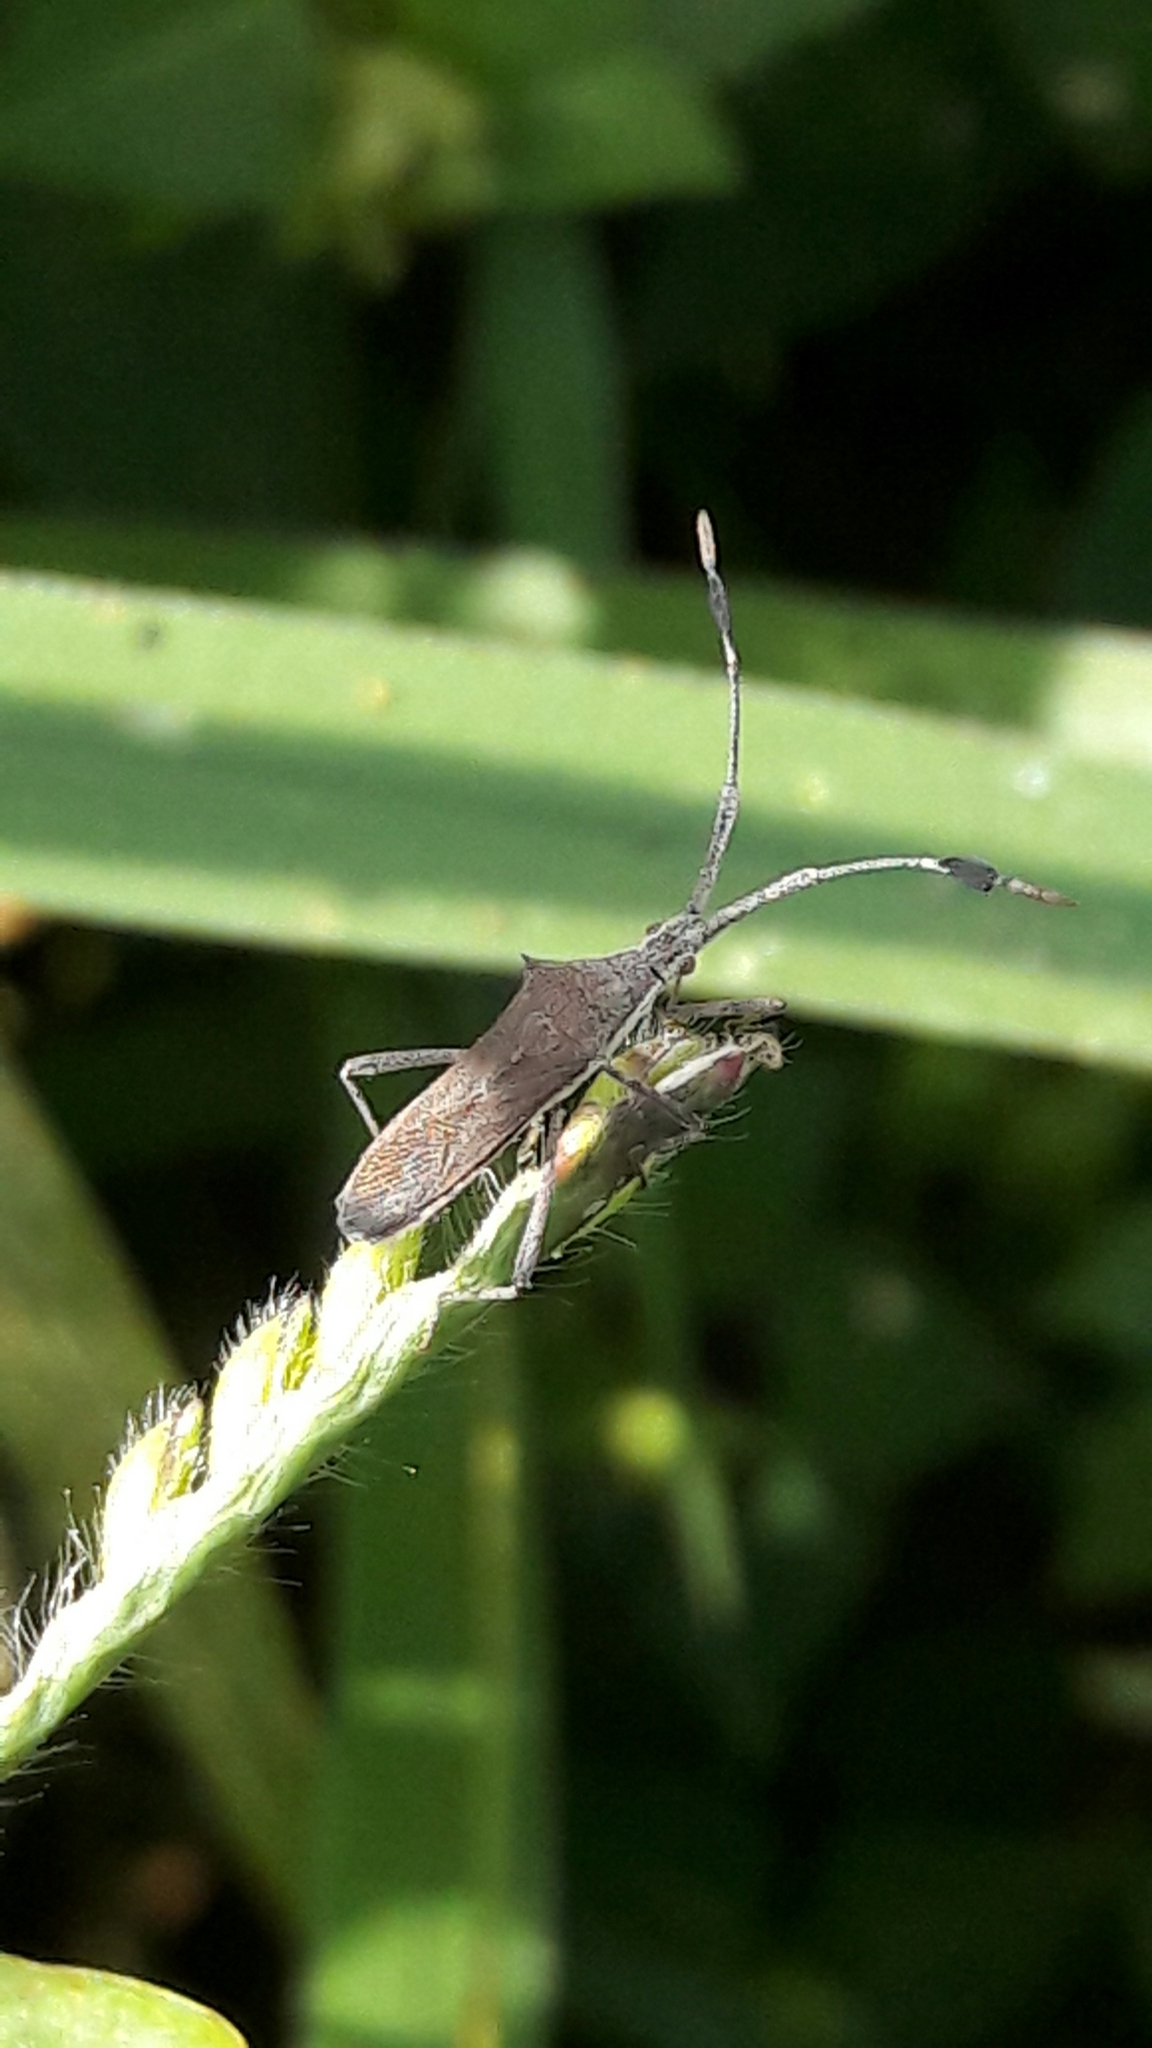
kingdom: Animalia
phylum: Arthropoda
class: Insecta
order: Hemiptera
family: Coreidae
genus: Chariesterus
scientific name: Chariesterus armatus
